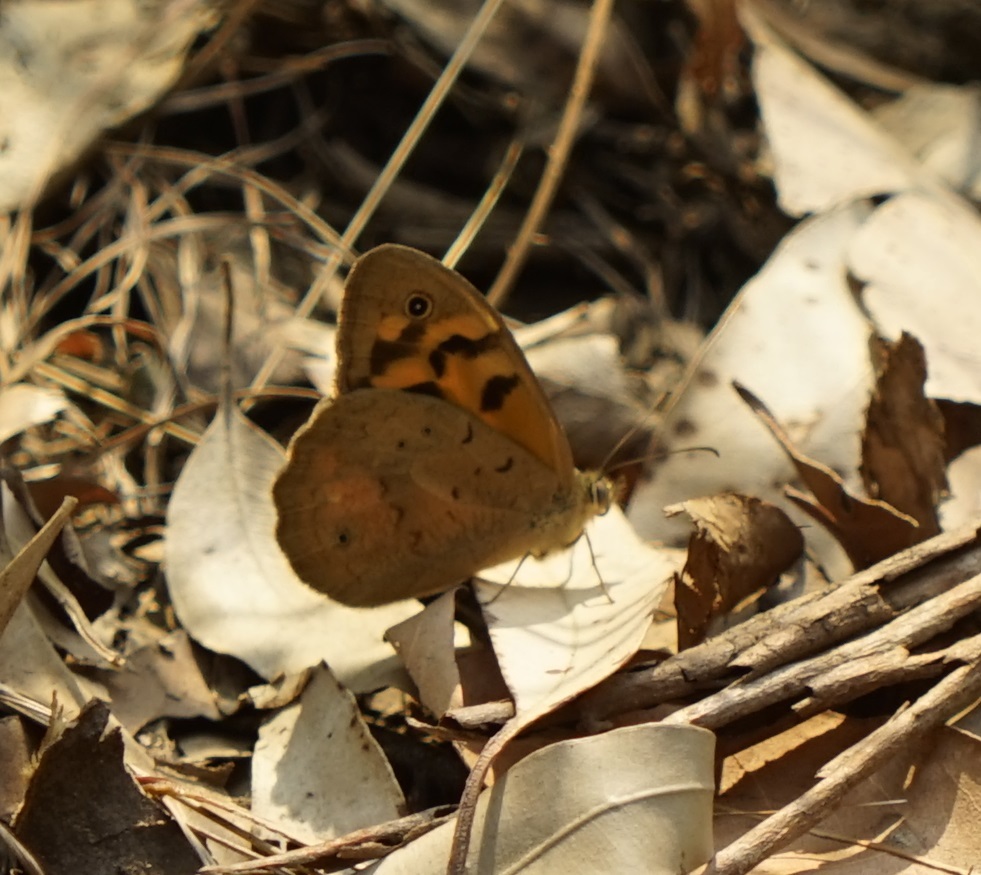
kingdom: Animalia
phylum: Arthropoda
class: Insecta
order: Lepidoptera
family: Nymphalidae
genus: Heteronympha
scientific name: Heteronympha merope
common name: Common brown
